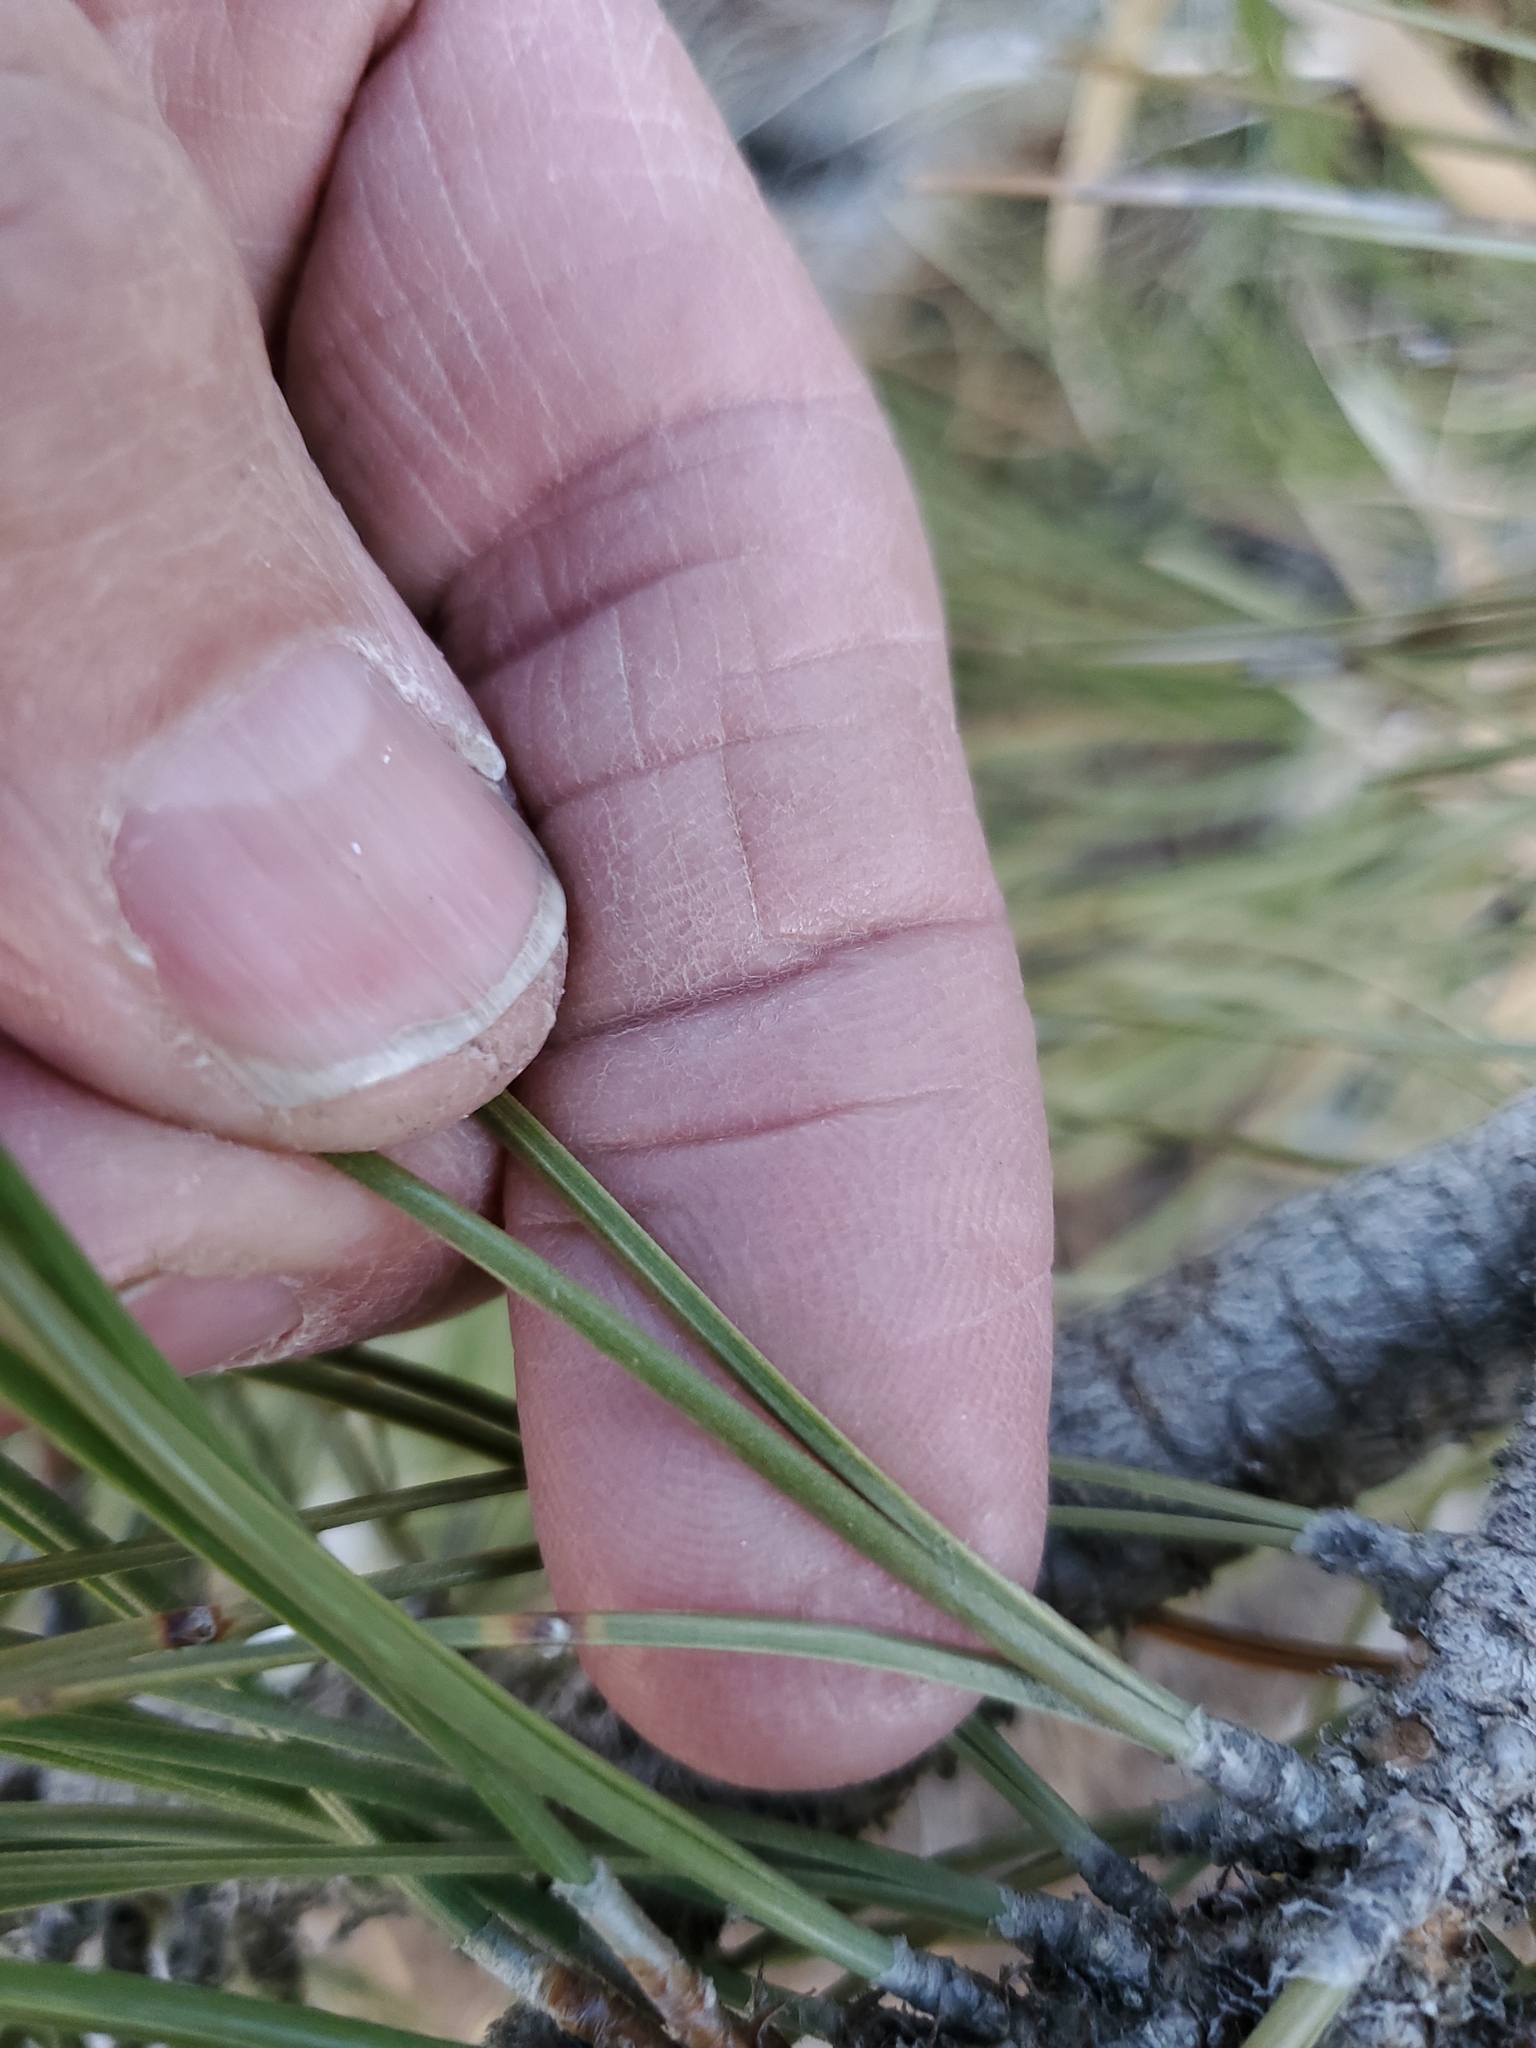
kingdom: Plantae
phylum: Tracheophyta
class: Pinopsida
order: Pinales
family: Pinaceae
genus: Pinus
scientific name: Pinus ponderosa
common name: Western yellow-pine
